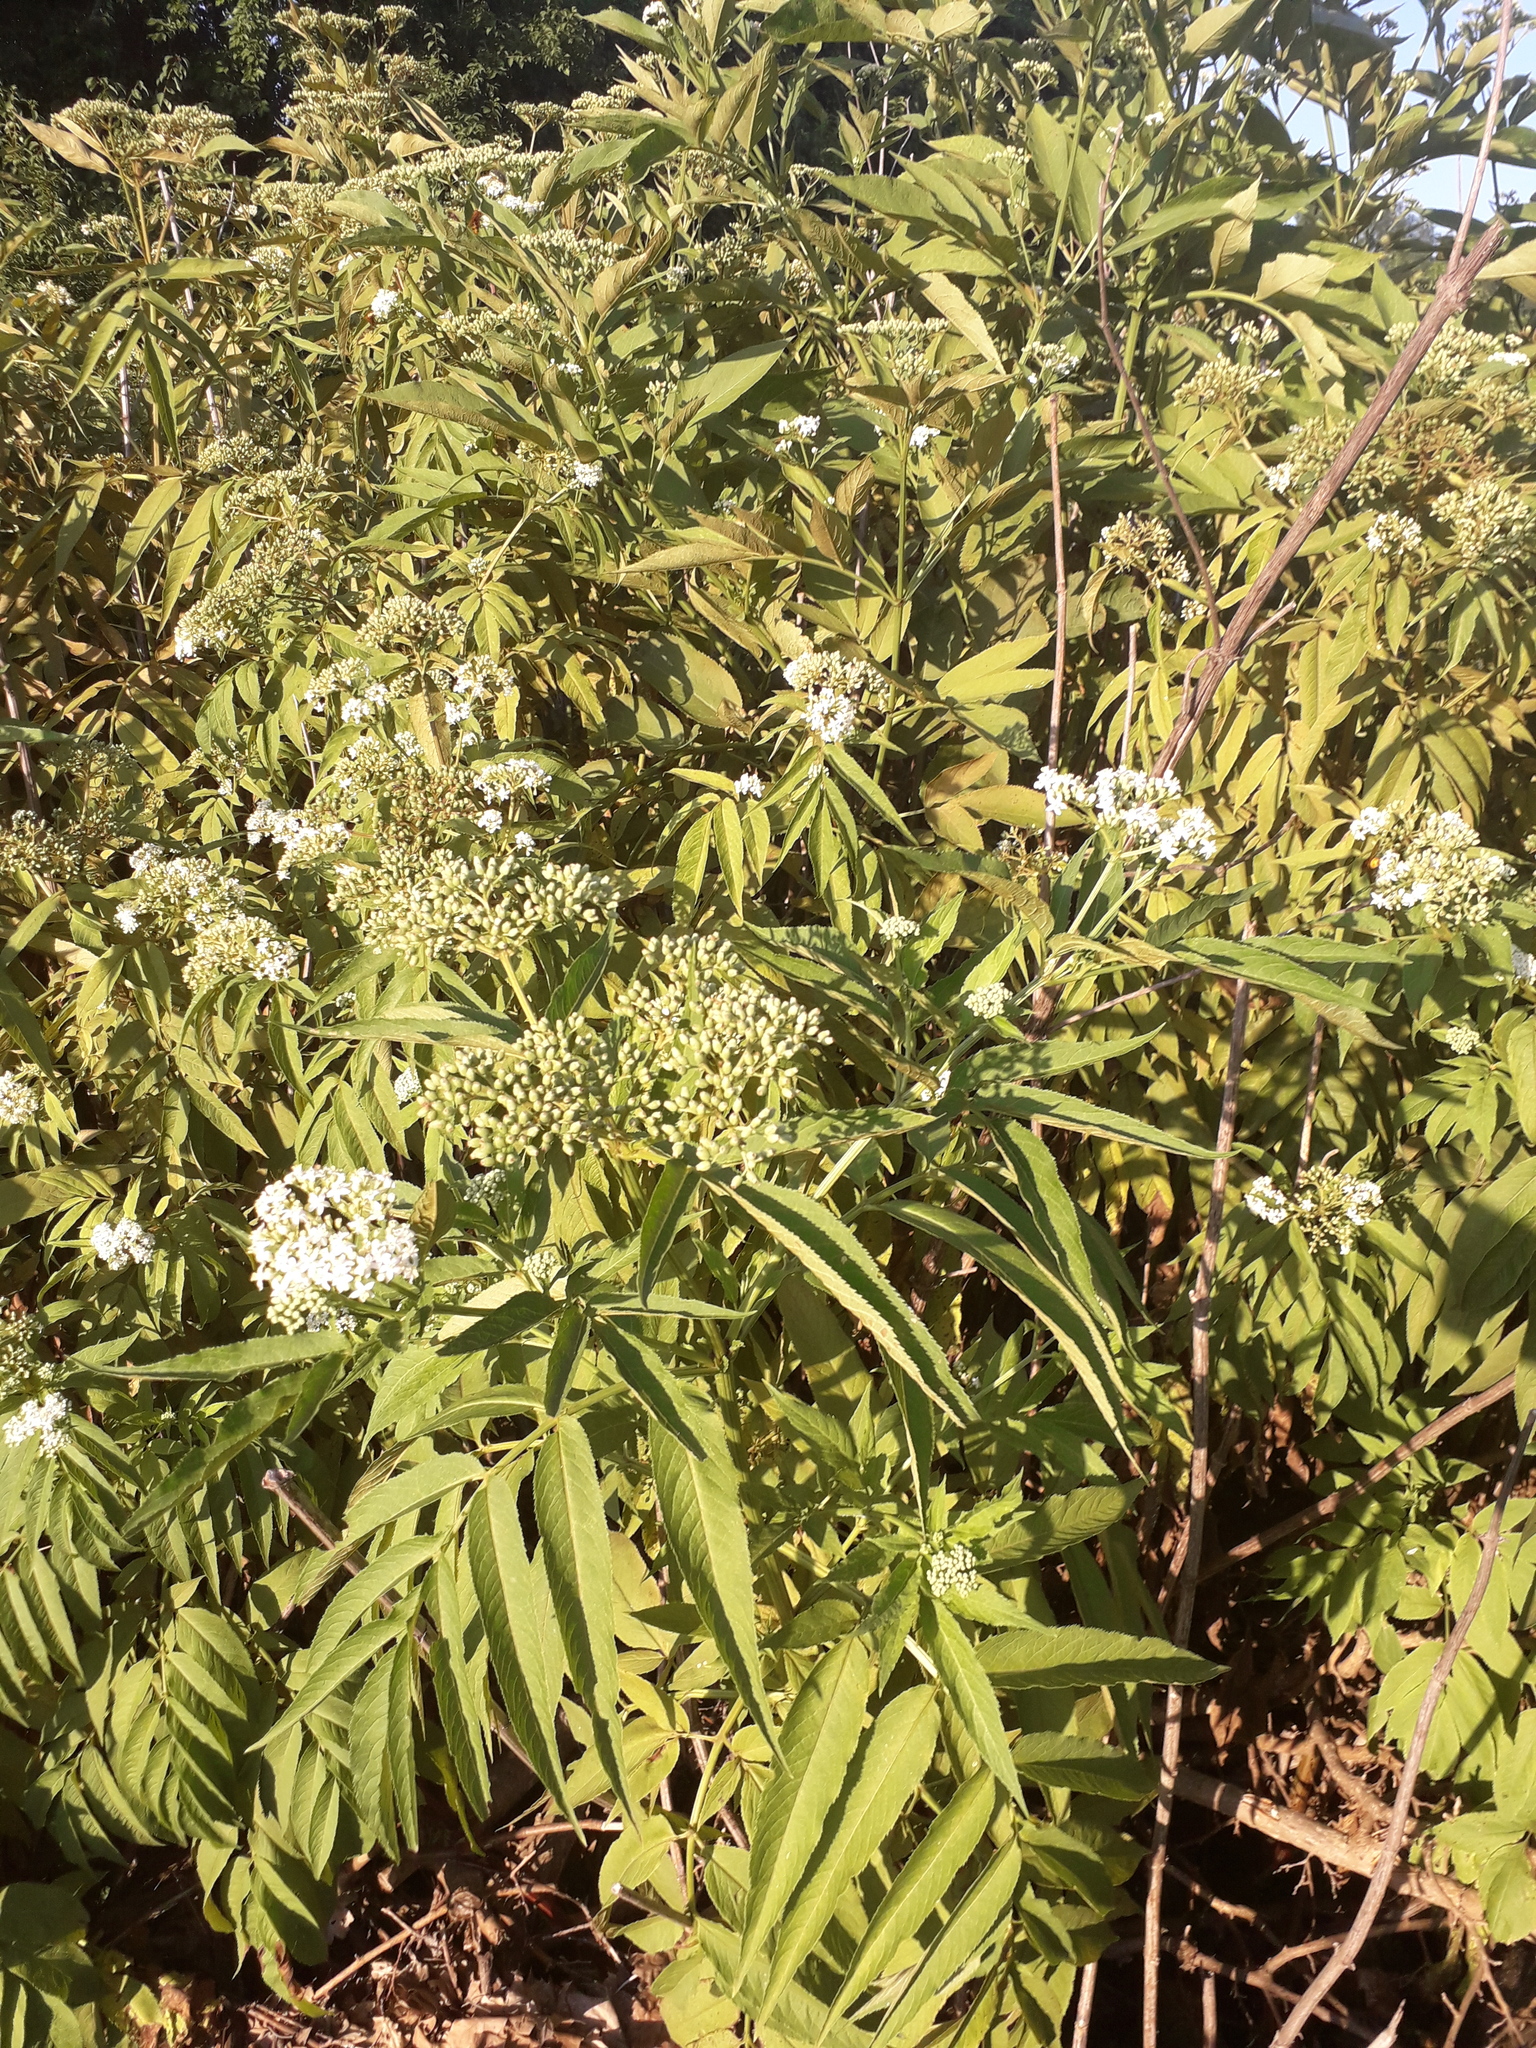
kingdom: Plantae
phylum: Tracheophyta
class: Magnoliopsida
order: Dipsacales
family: Viburnaceae
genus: Sambucus
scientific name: Sambucus ebulus
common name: Dwarf elder
